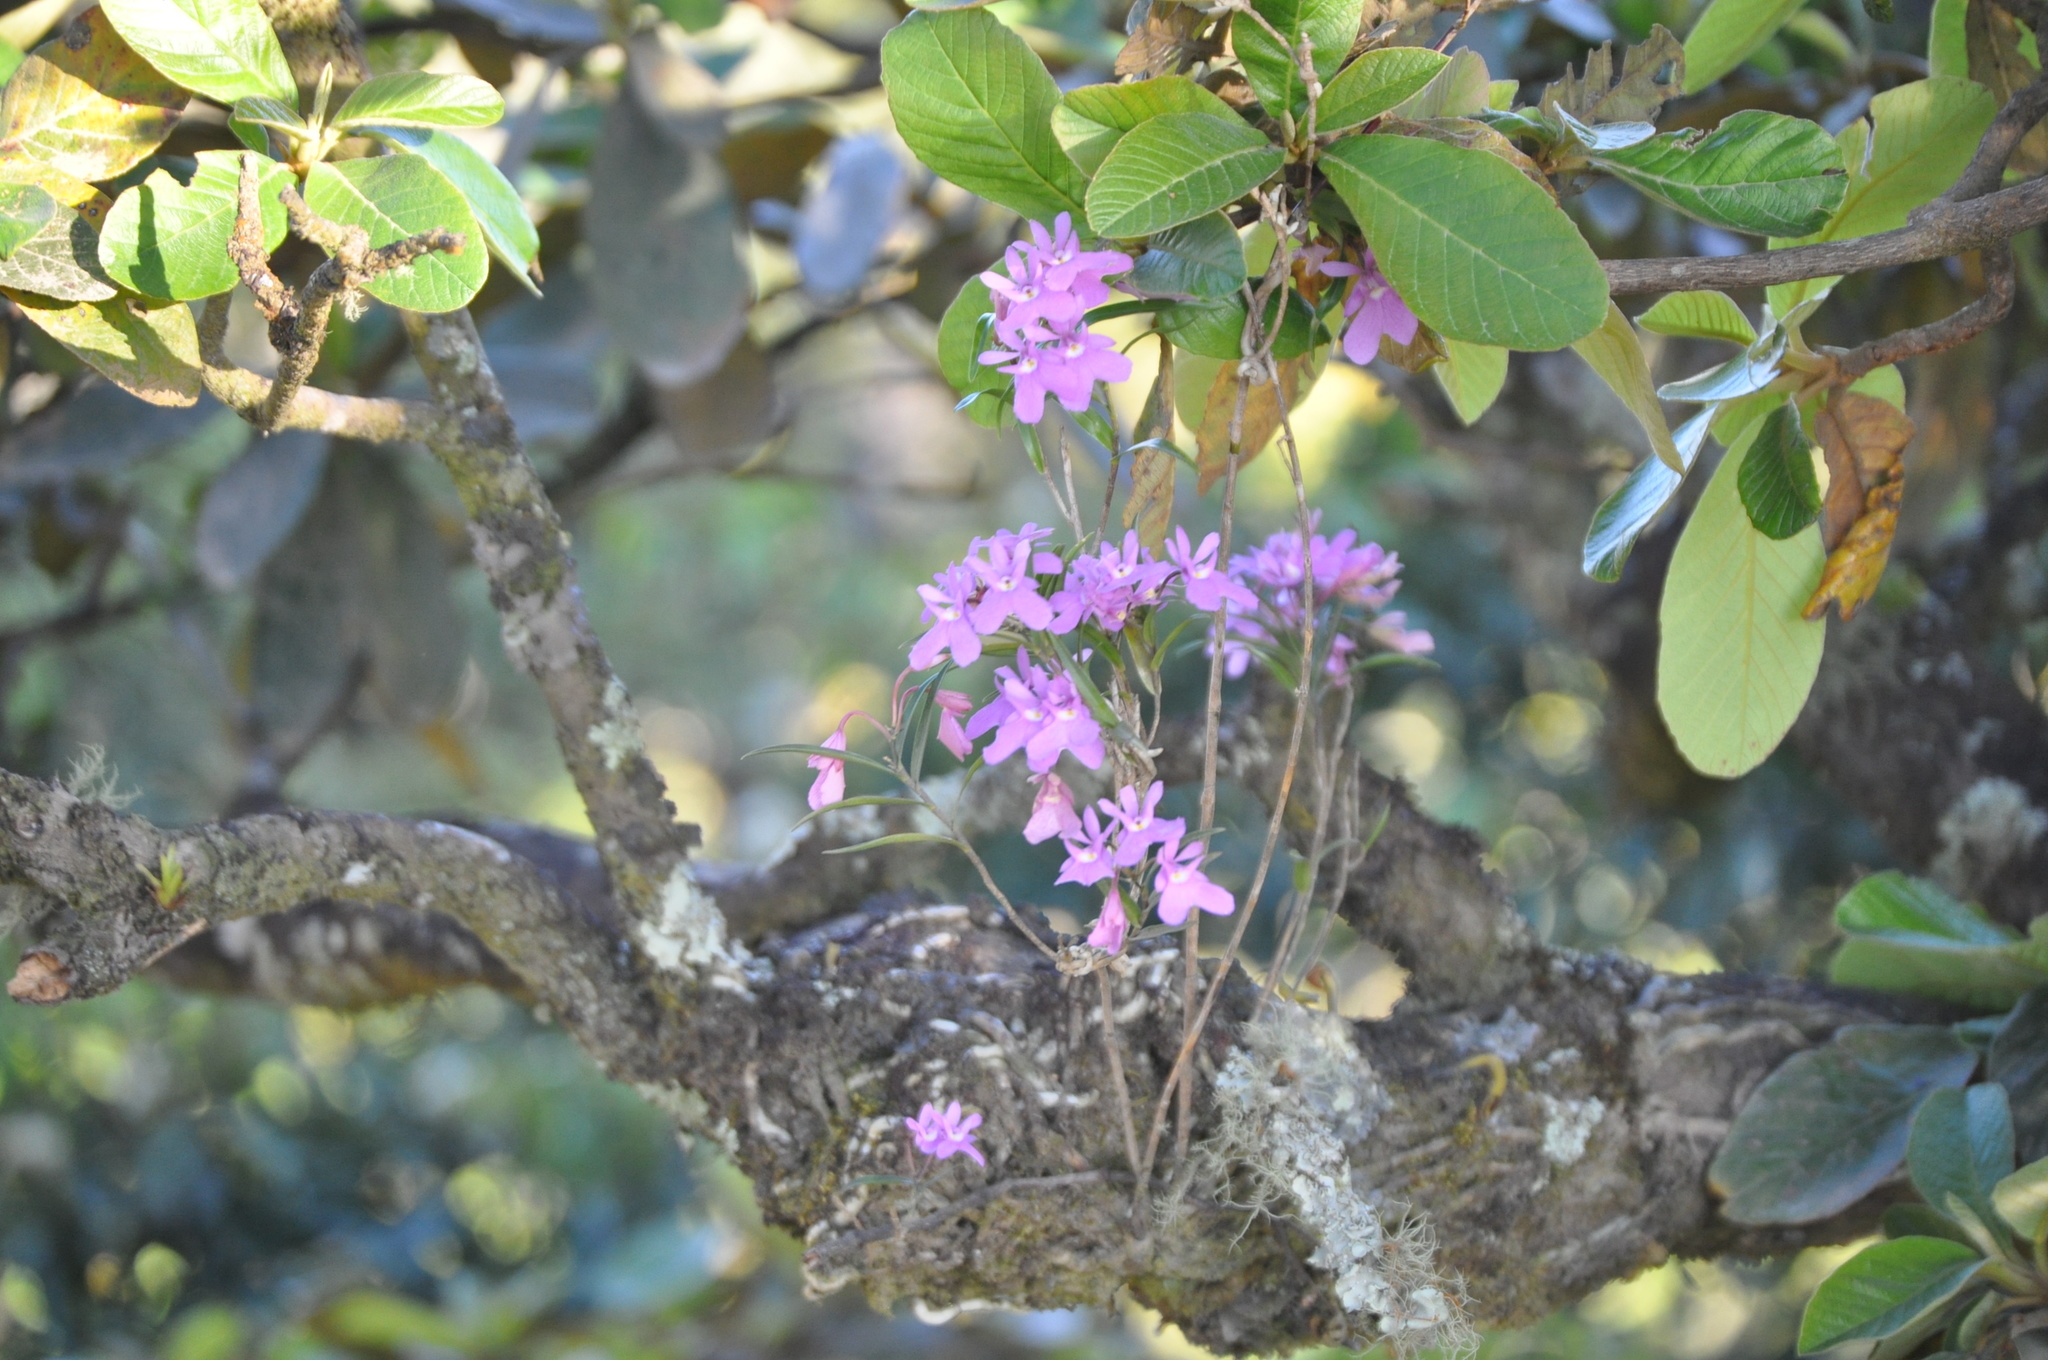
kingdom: Plantae
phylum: Tracheophyta
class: Liliopsida
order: Asparagales
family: Orchidaceae
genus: Epidendrum
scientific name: Epidendrum centropetalum
